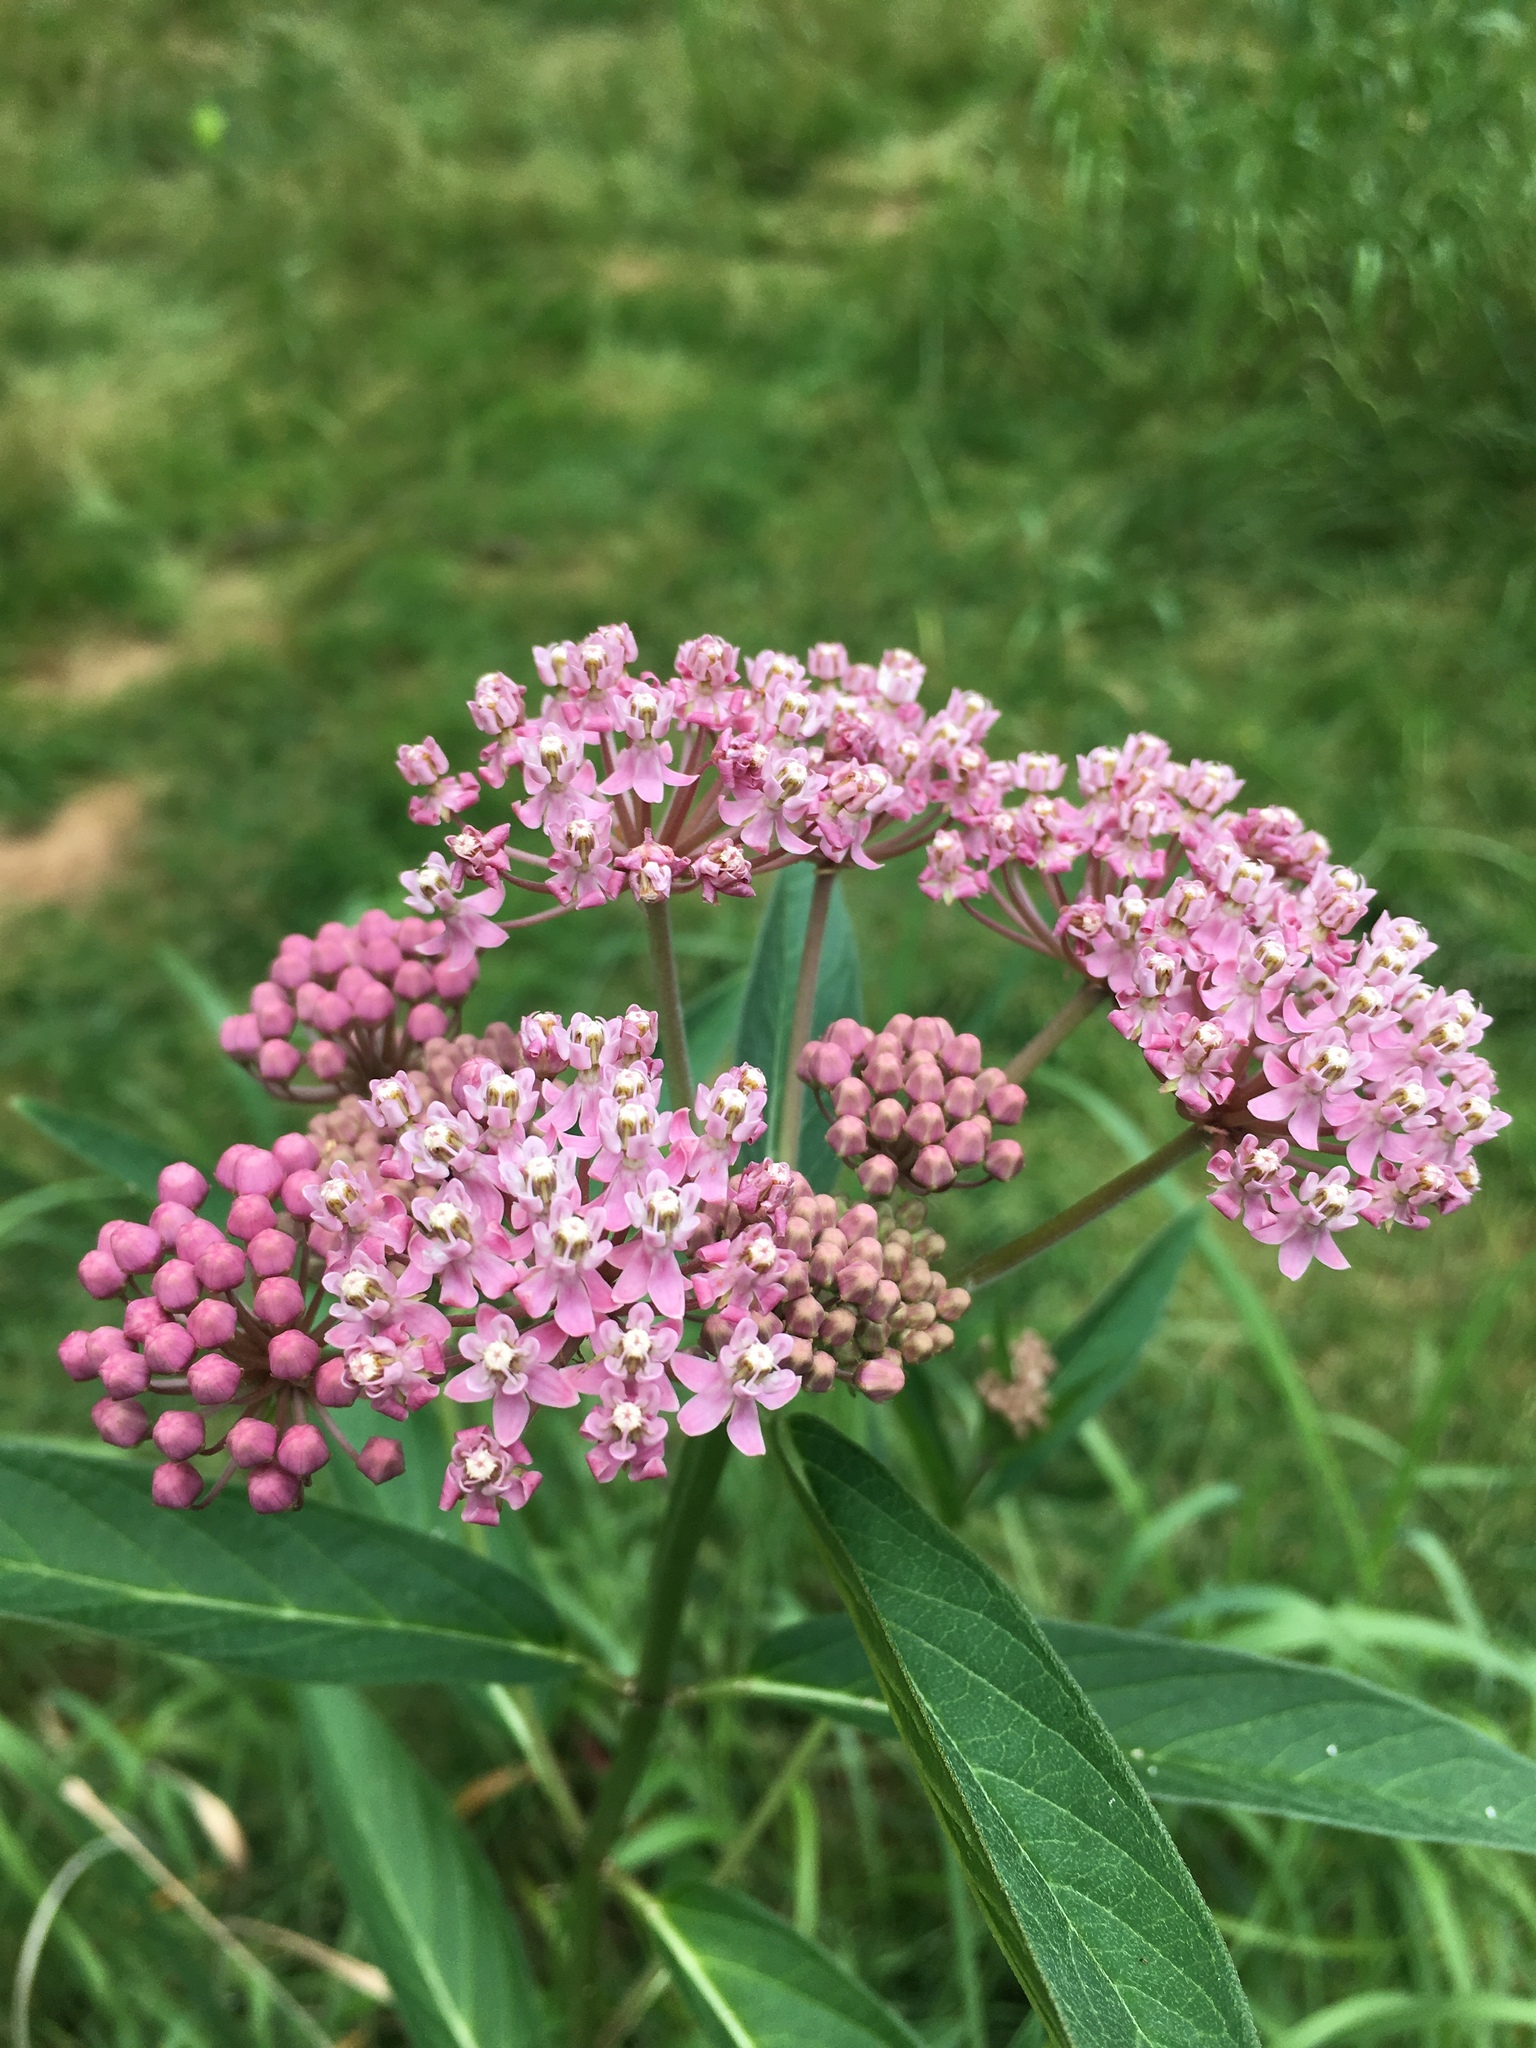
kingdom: Plantae
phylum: Tracheophyta
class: Magnoliopsida
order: Gentianales
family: Apocynaceae
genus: Asclepias
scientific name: Asclepias incarnata
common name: Swamp milkweed
